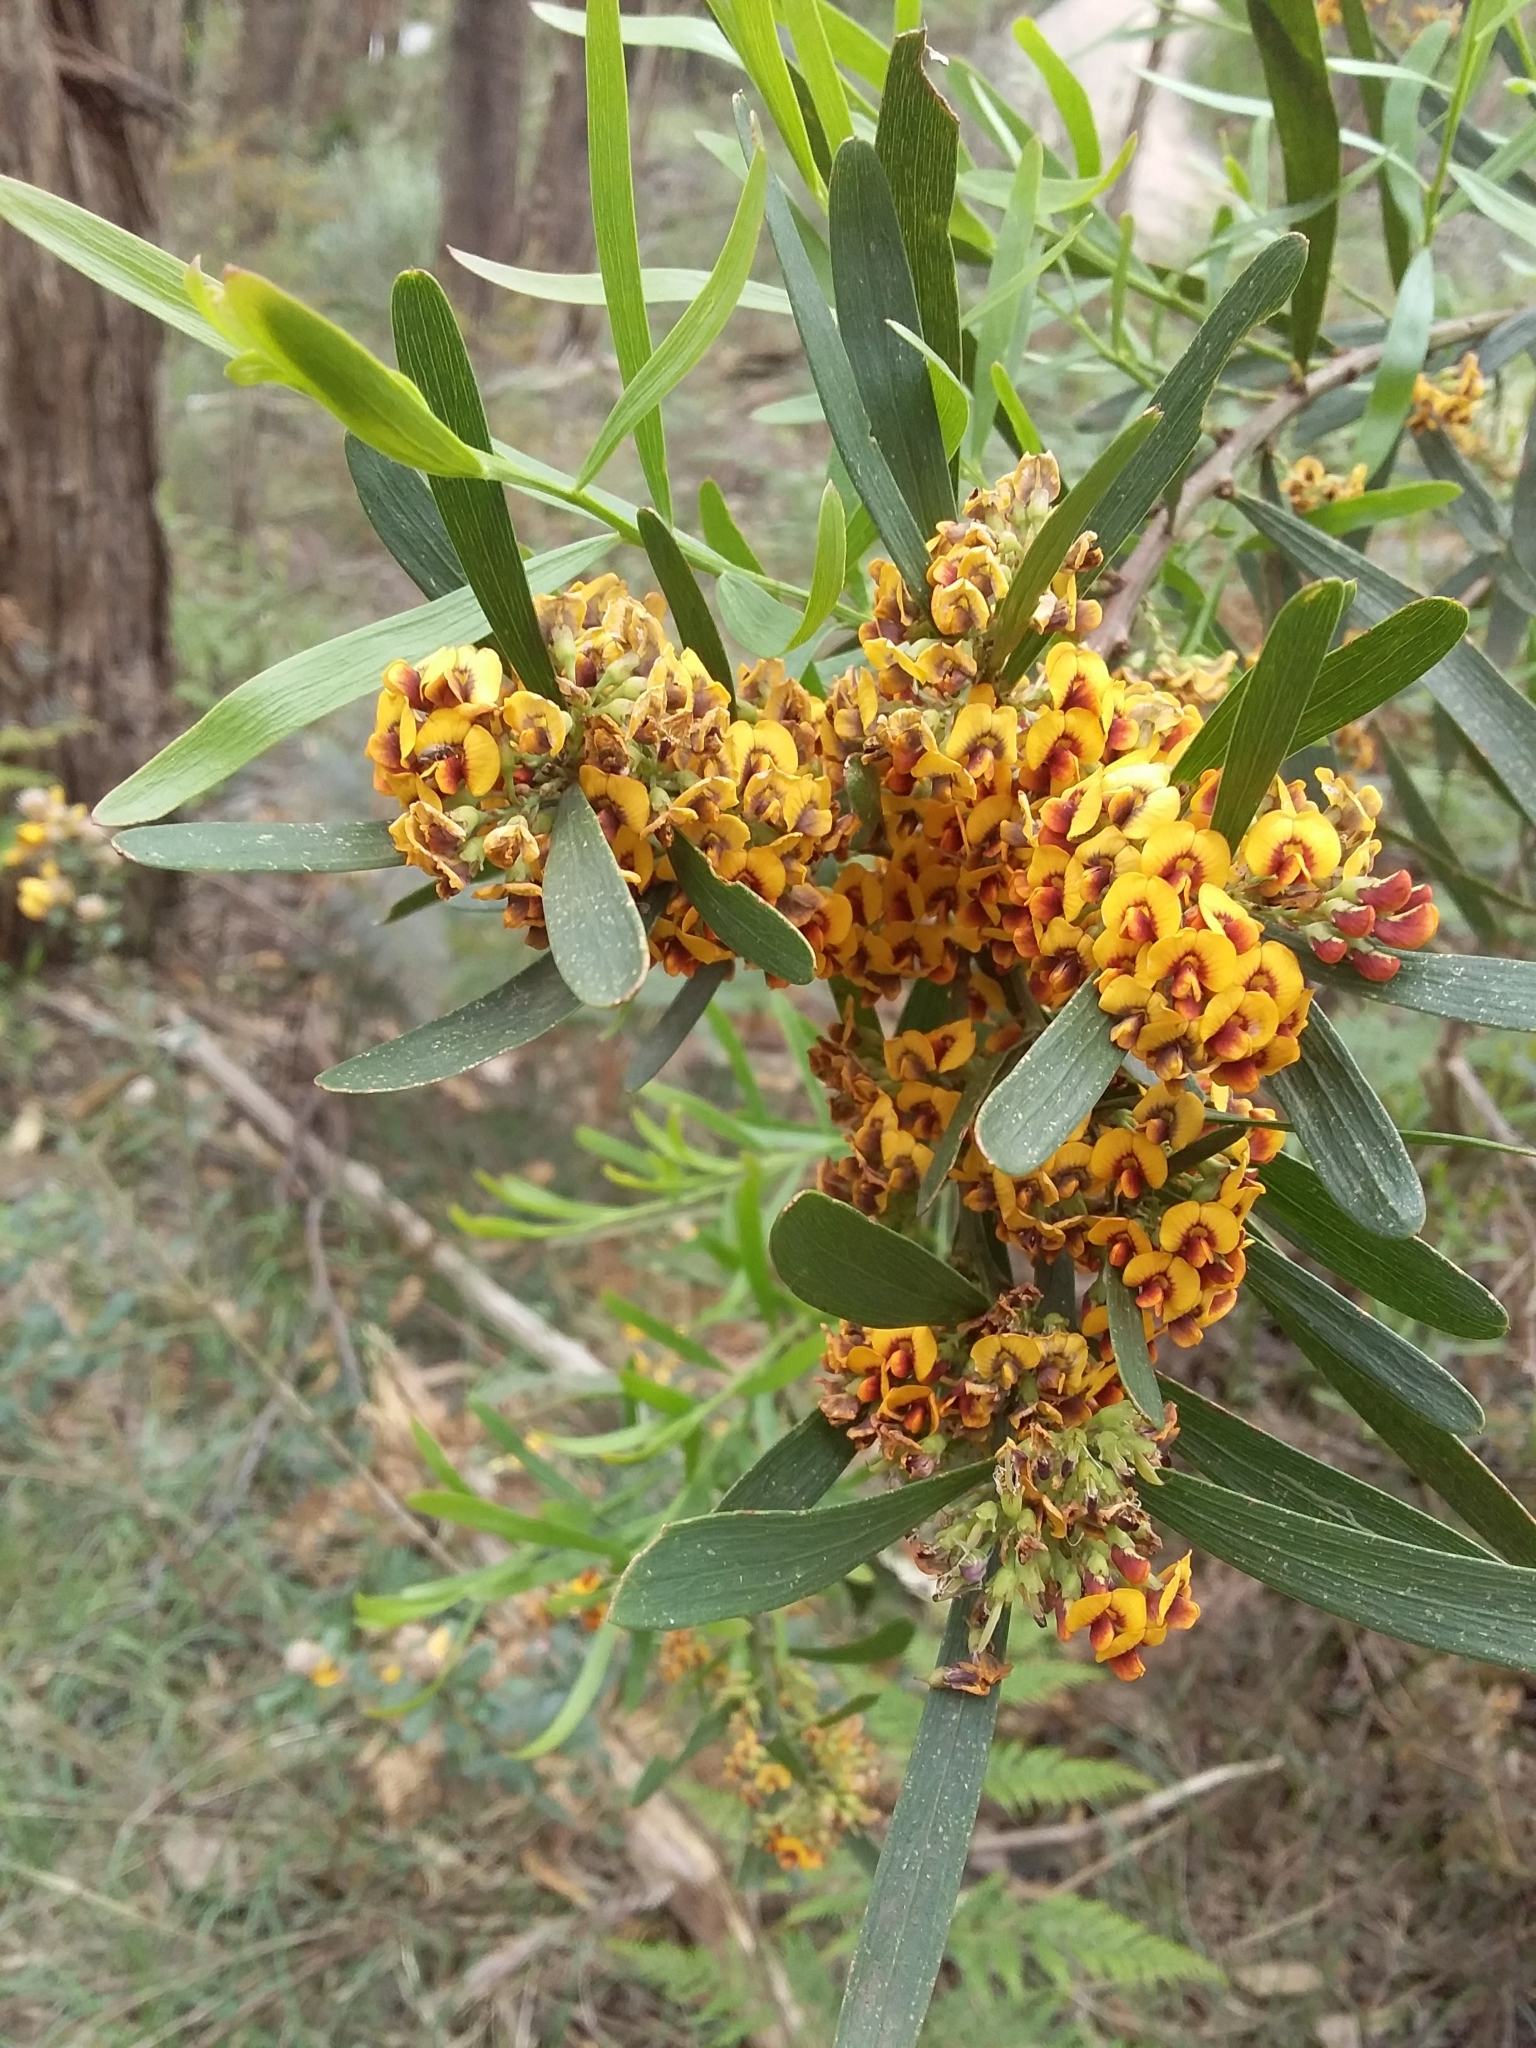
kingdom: Plantae
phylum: Tracheophyta
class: Magnoliopsida
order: Fabales
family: Fabaceae
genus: Daviesia
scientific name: Daviesia leptophylla
